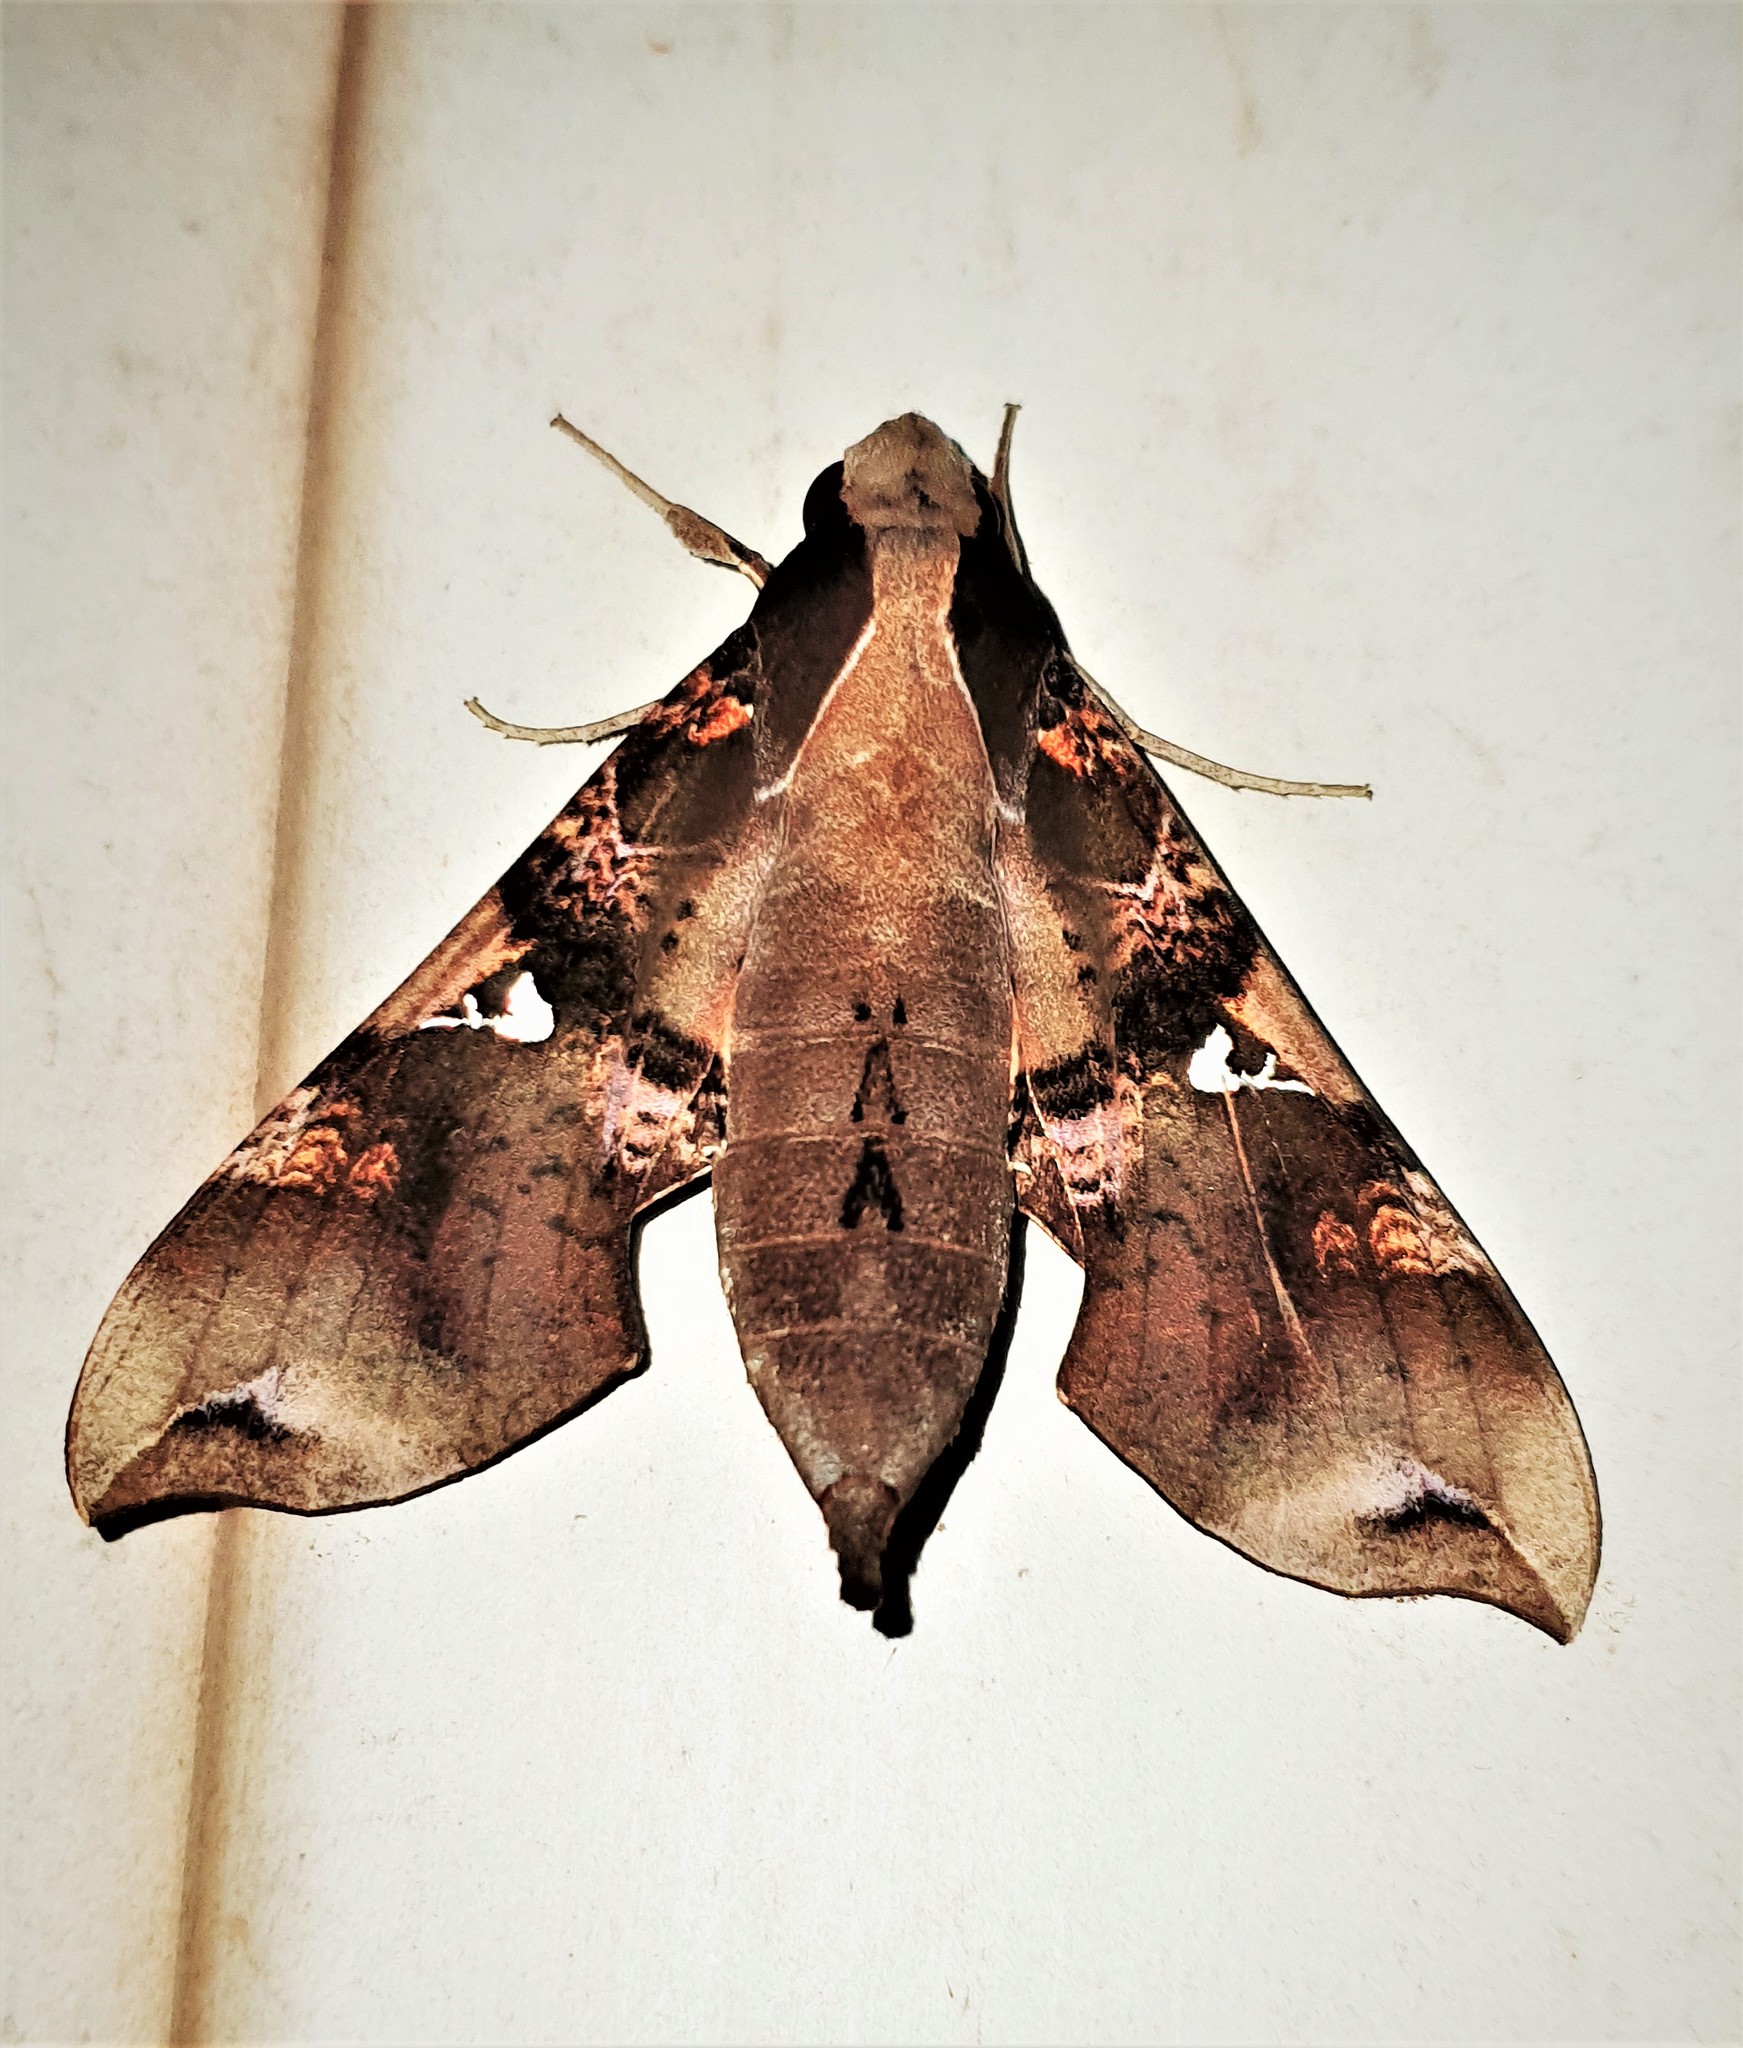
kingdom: Animalia
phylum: Arthropoda
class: Insecta
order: Lepidoptera
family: Sphingidae
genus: Callionima
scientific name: Callionima parce
